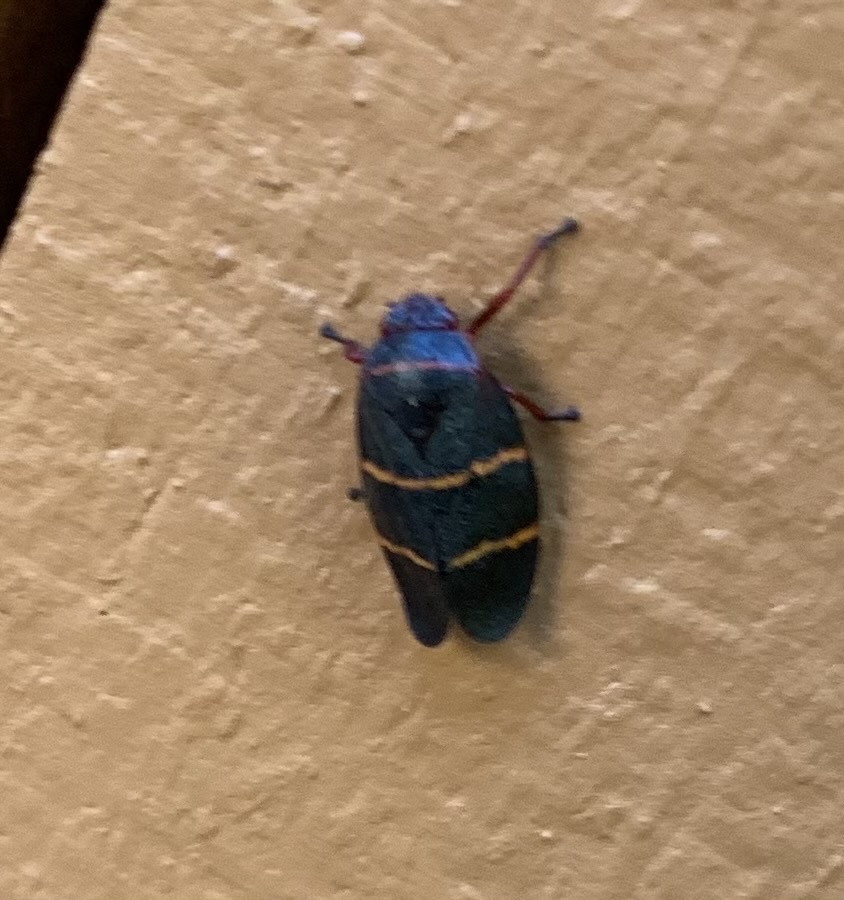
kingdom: Animalia
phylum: Arthropoda
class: Insecta
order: Hemiptera
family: Cercopidae
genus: Prosapia
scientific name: Prosapia bicincta
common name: Twolined spittlebug
